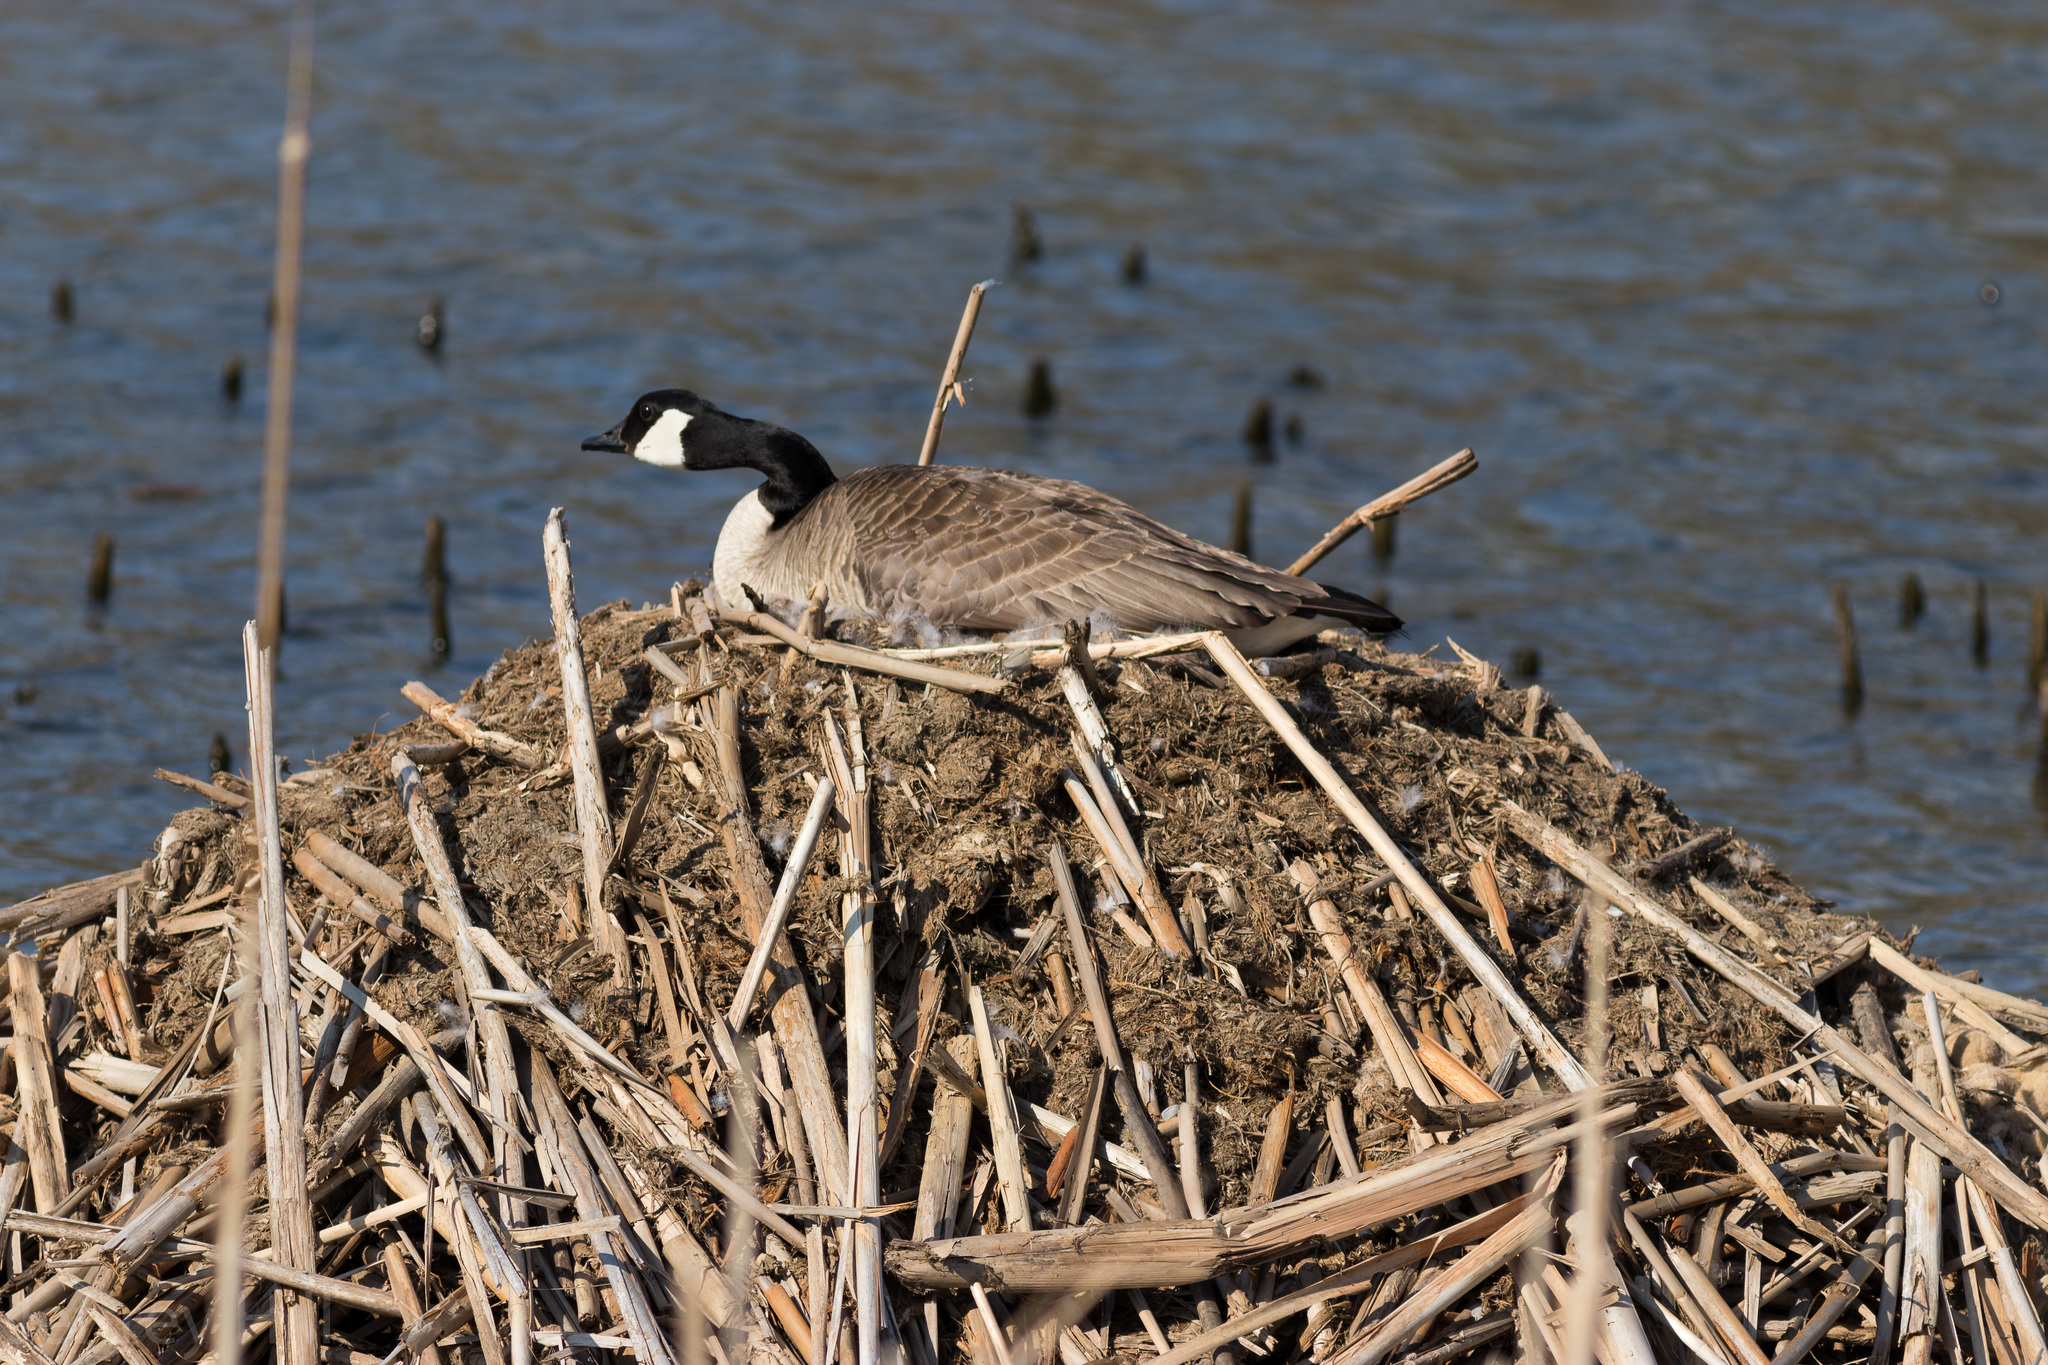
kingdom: Animalia
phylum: Chordata
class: Aves
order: Anseriformes
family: Anatidae
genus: Branta
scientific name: Branta canadensis
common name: Canada goose
